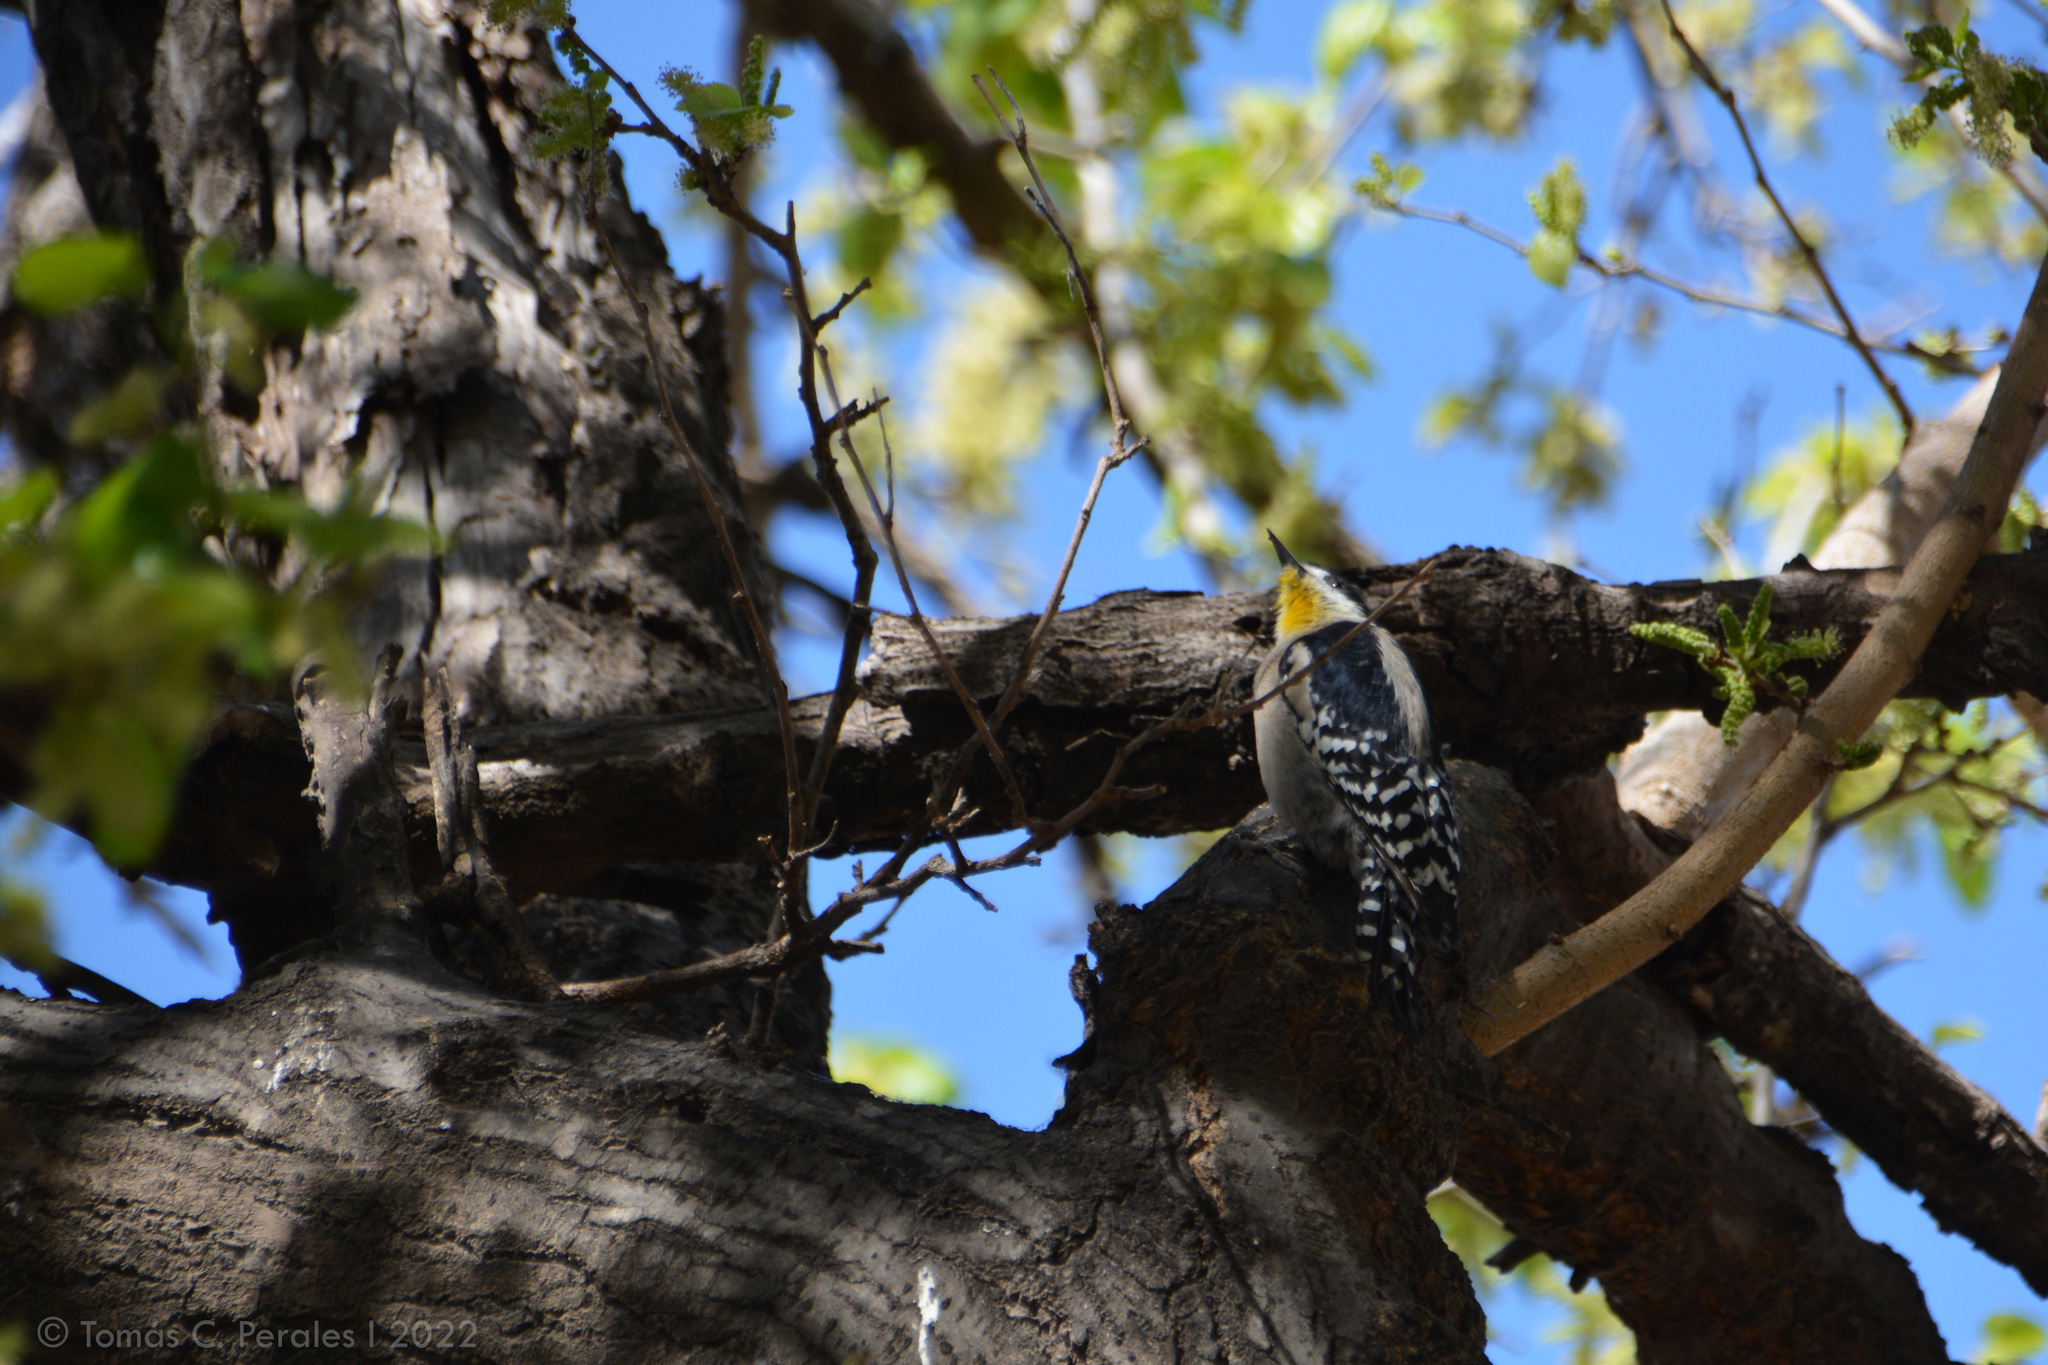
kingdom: Animalia
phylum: Chordata
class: Aves
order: Piciformes
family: Picidae
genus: Melanerpes
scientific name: Melanerpes cactorum
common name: White-fronted woodpecker
